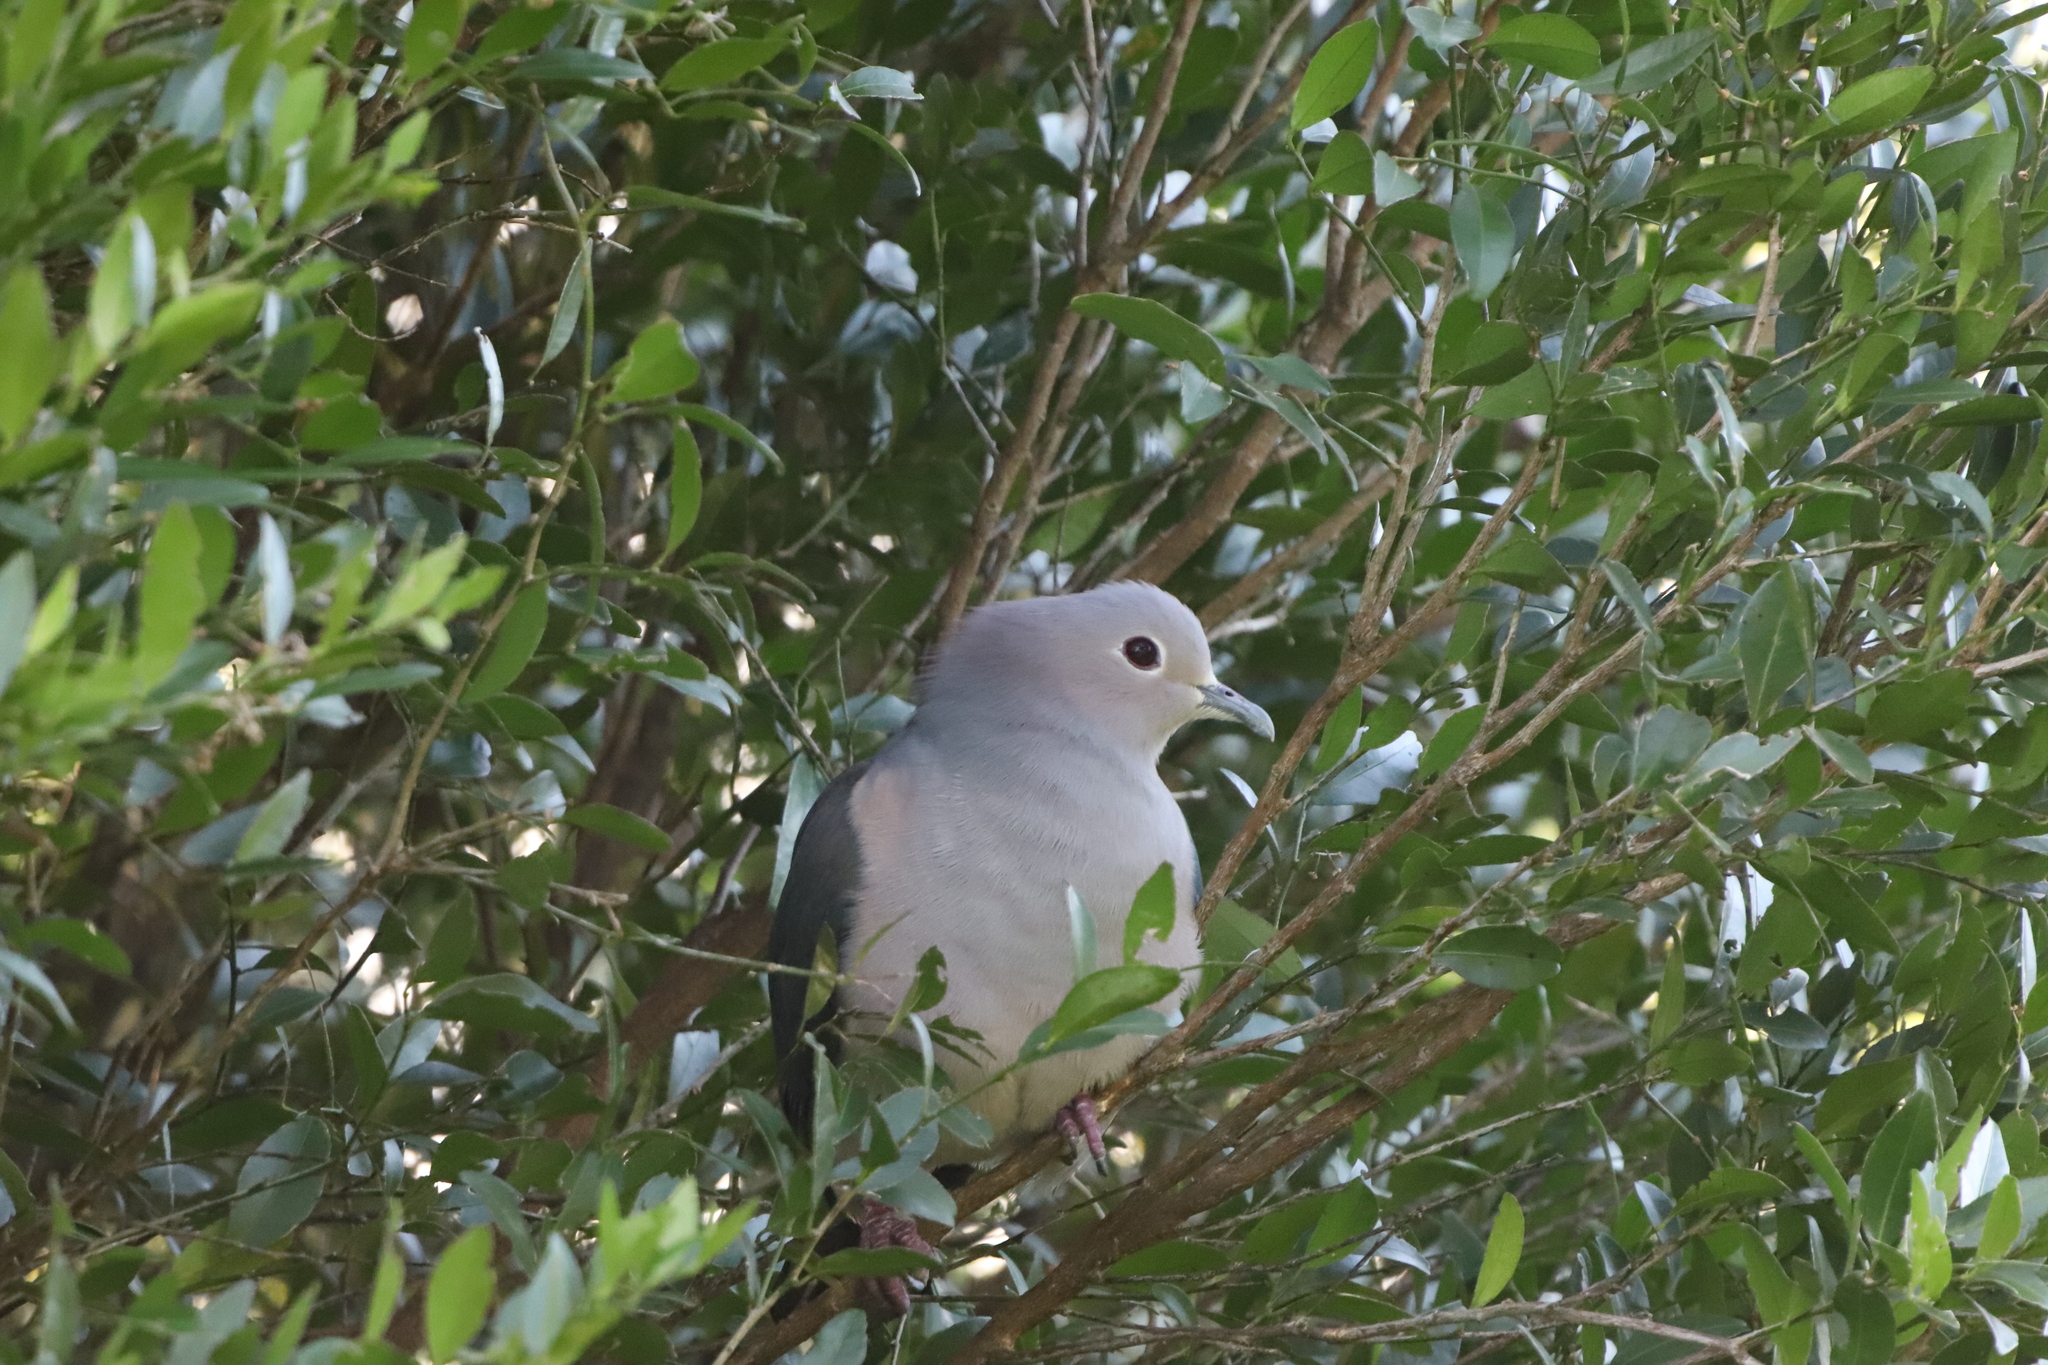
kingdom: Animalia
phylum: Chordata
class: Aves
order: Columbiformes
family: Columbidae
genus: Ducula
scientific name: Ducula aenea
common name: Green imperial pigeon
